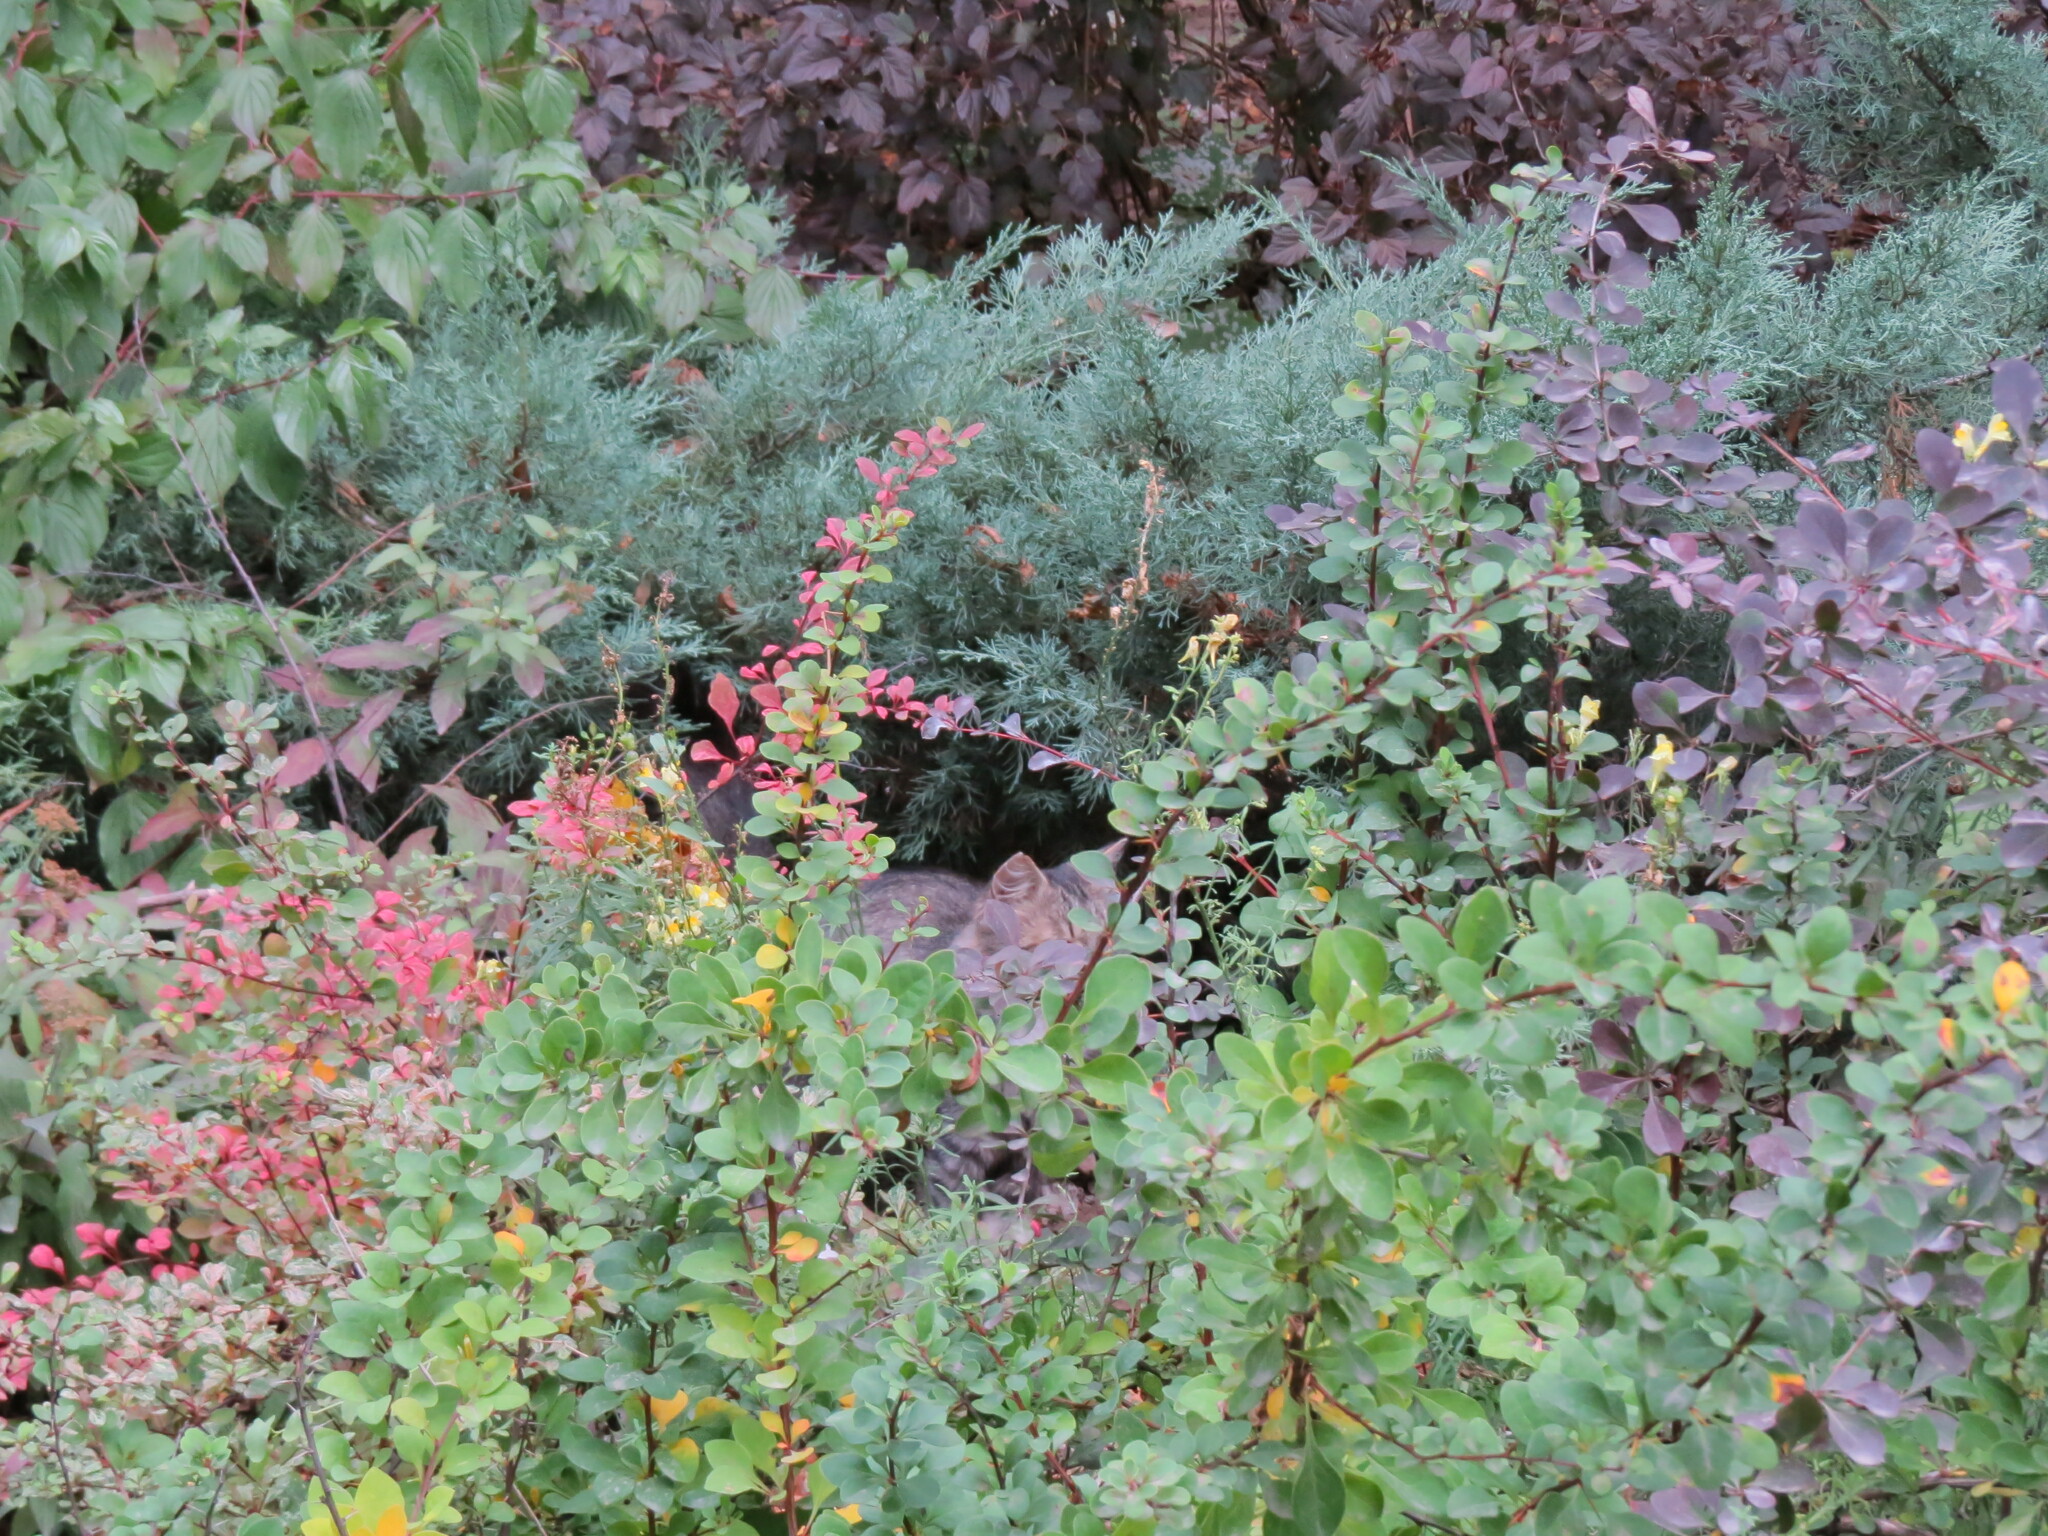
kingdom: Animalia
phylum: Chordata
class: Mammalia
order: Carnivora
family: Felidae
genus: Felis
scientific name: Felis catus
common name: Domestic cat
